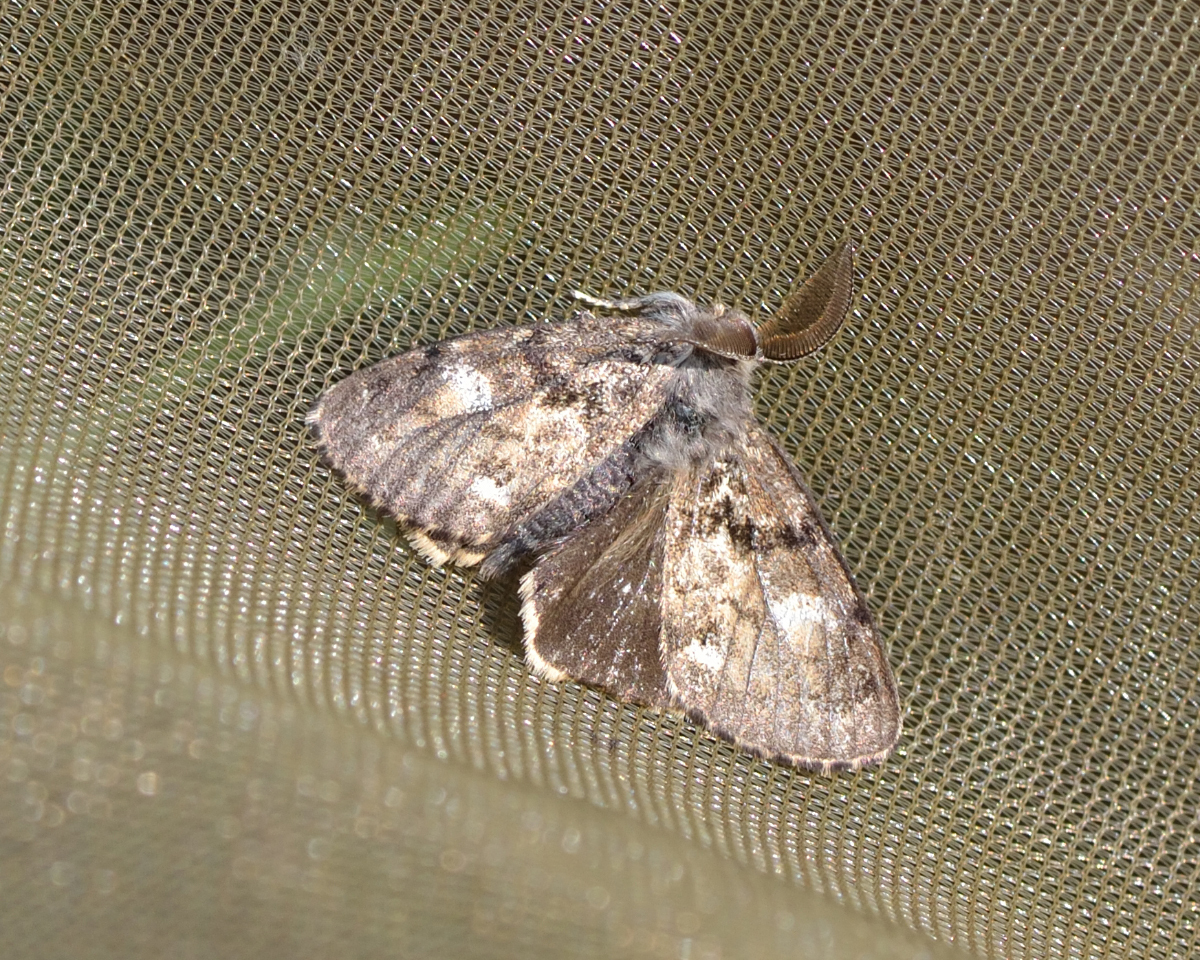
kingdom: Animalia
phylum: Arthropoda
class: Insecta
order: Lepidoptera
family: Erebidae
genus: Gynaephora
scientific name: Gynaephora selenitica
